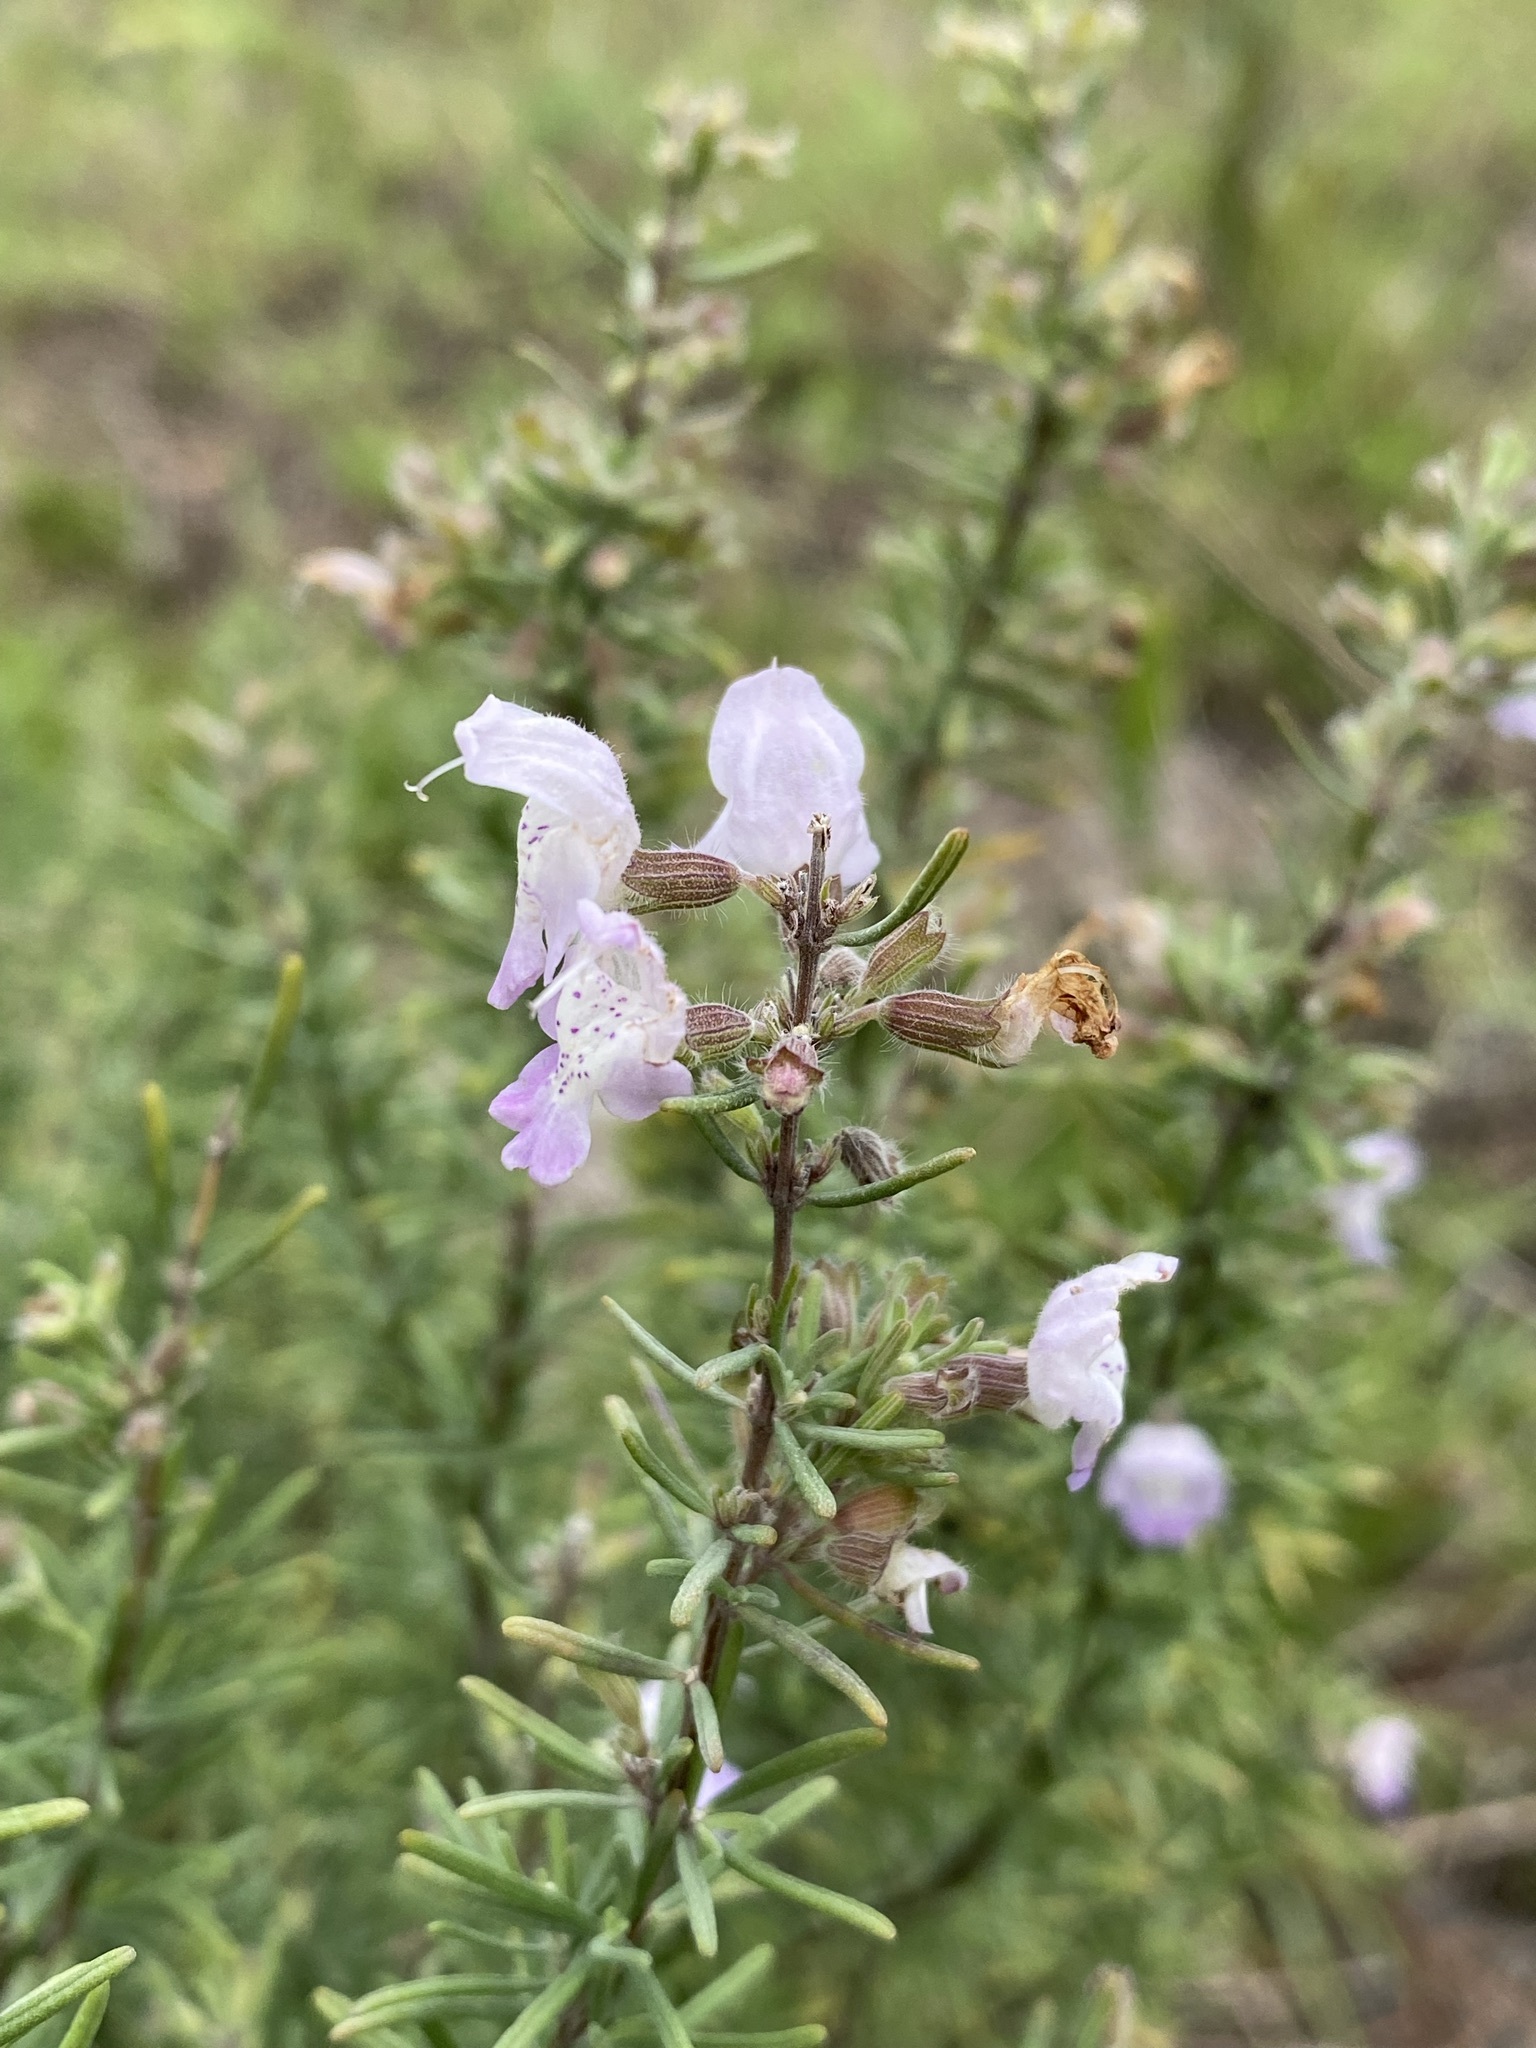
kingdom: Plantae
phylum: Tracheophyta
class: Magnoliopsida
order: Lamiales
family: Lamiaceae
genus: Conradina
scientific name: Conradina canescens
